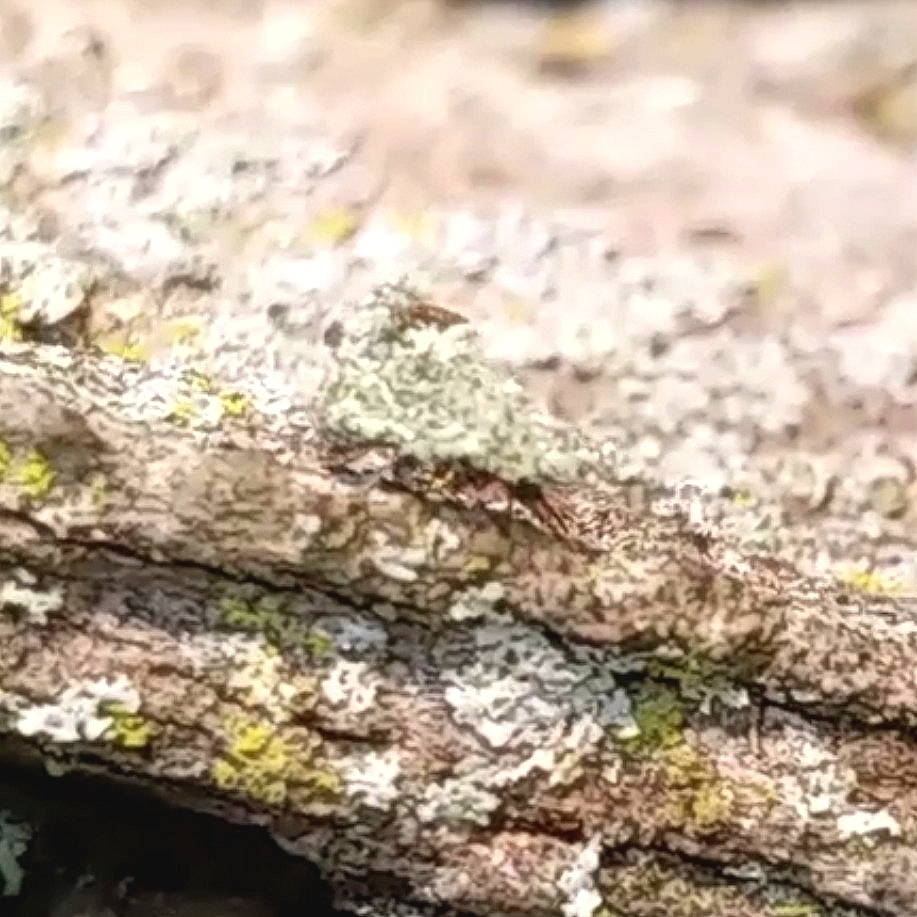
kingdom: Animalia
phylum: Arthropoda
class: Insecta
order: Neuroptera
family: Chrysopidae
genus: Leucochrysa
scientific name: Leucochrysa pavida
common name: Lichen-carrying green lacewing
